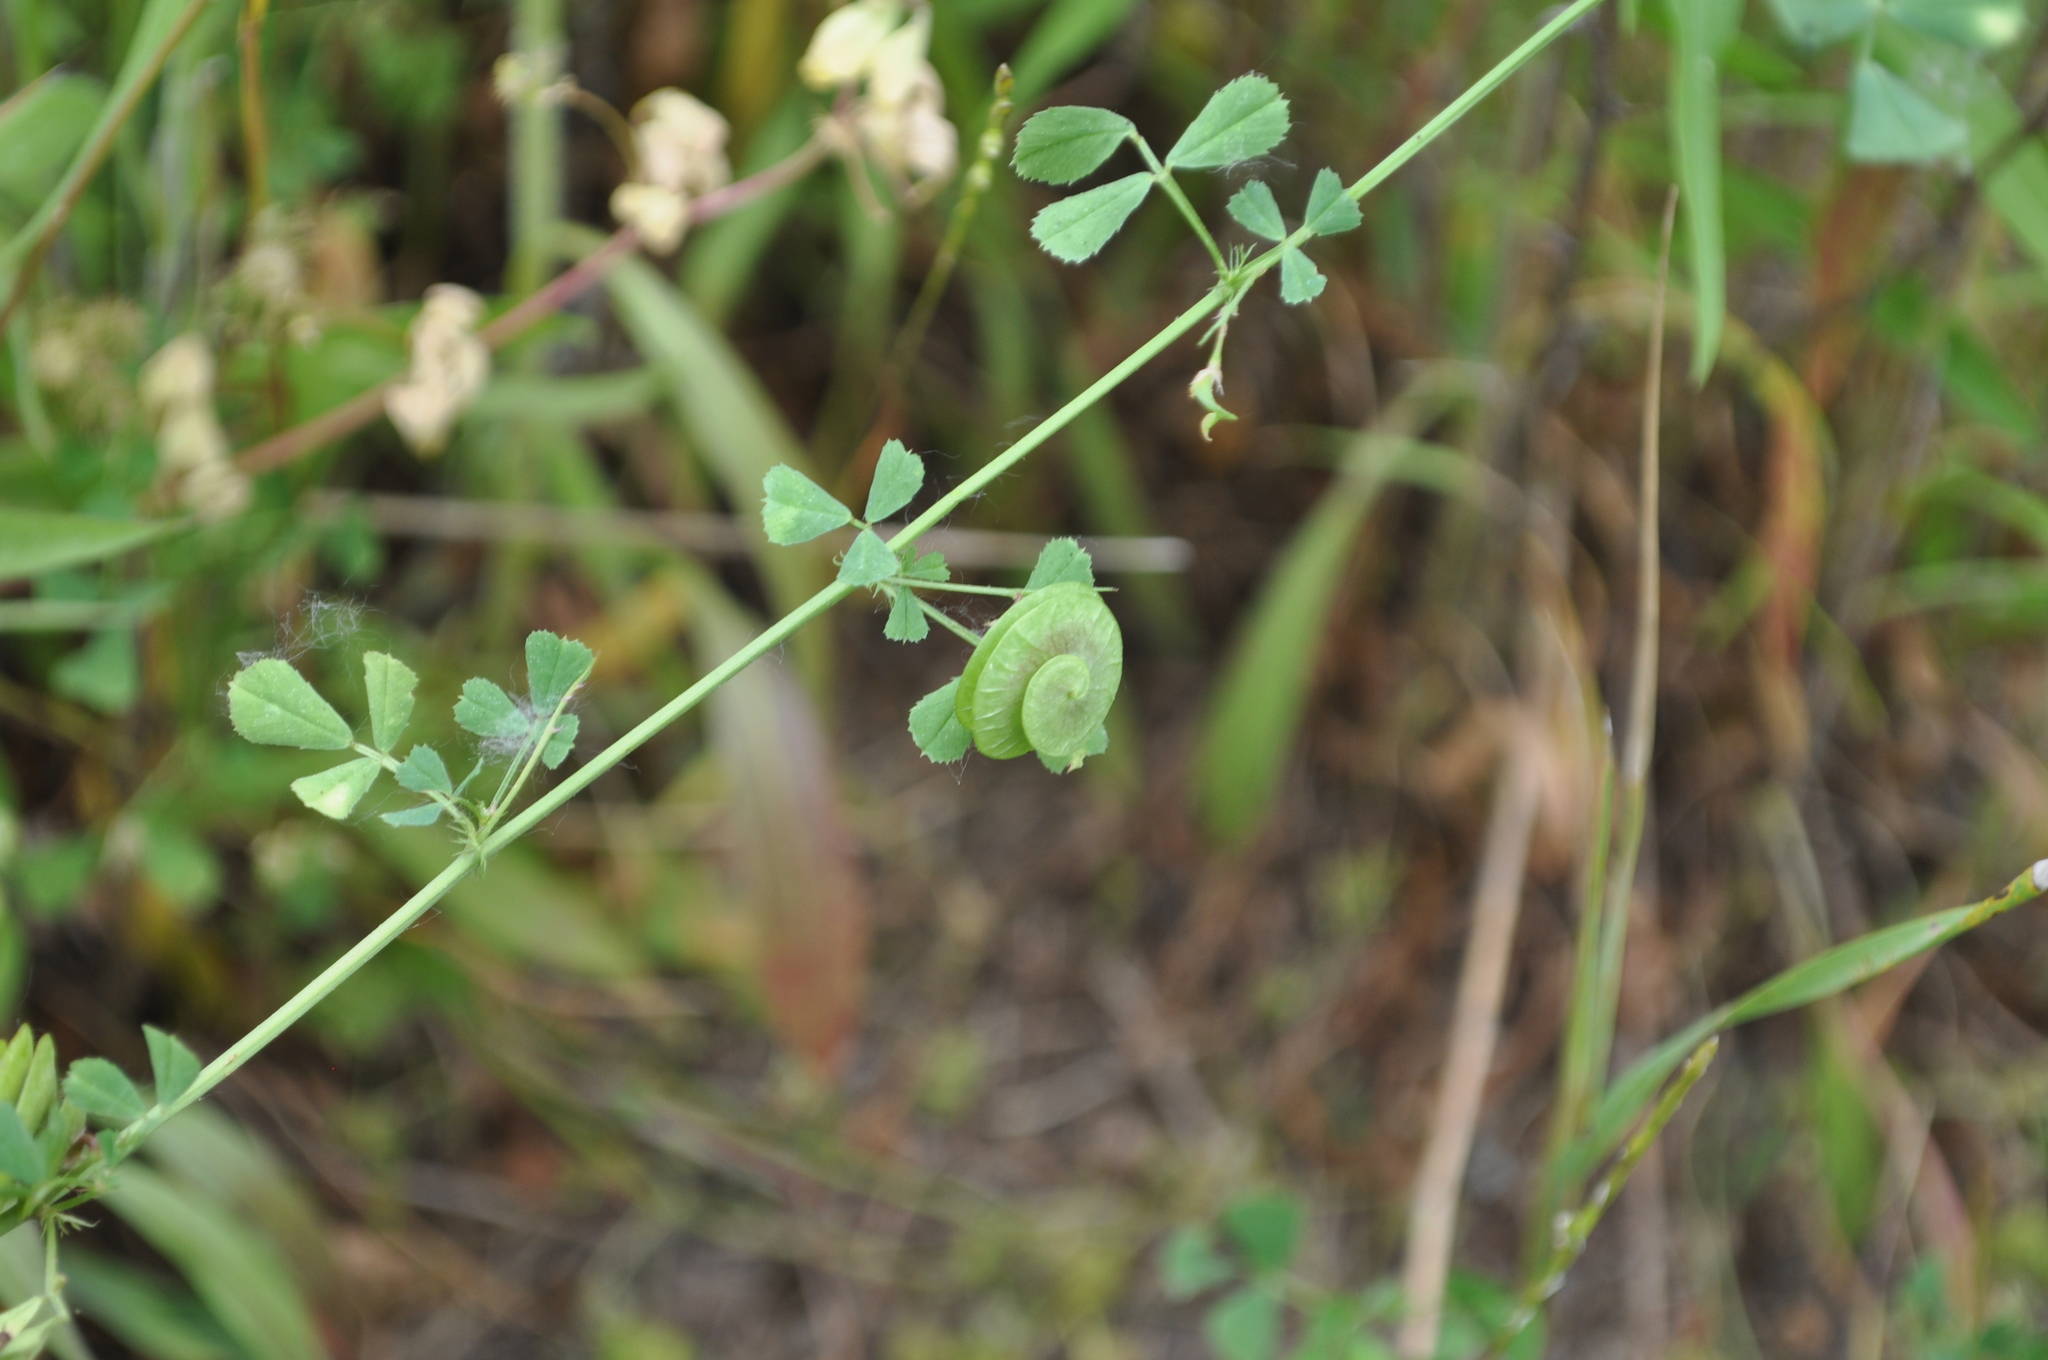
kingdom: Plantae
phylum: Tracheophyta
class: Magnoliopsida
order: Fabales
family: Fabaceae
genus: Medicago
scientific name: Medicago orbicularis
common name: Button medick
